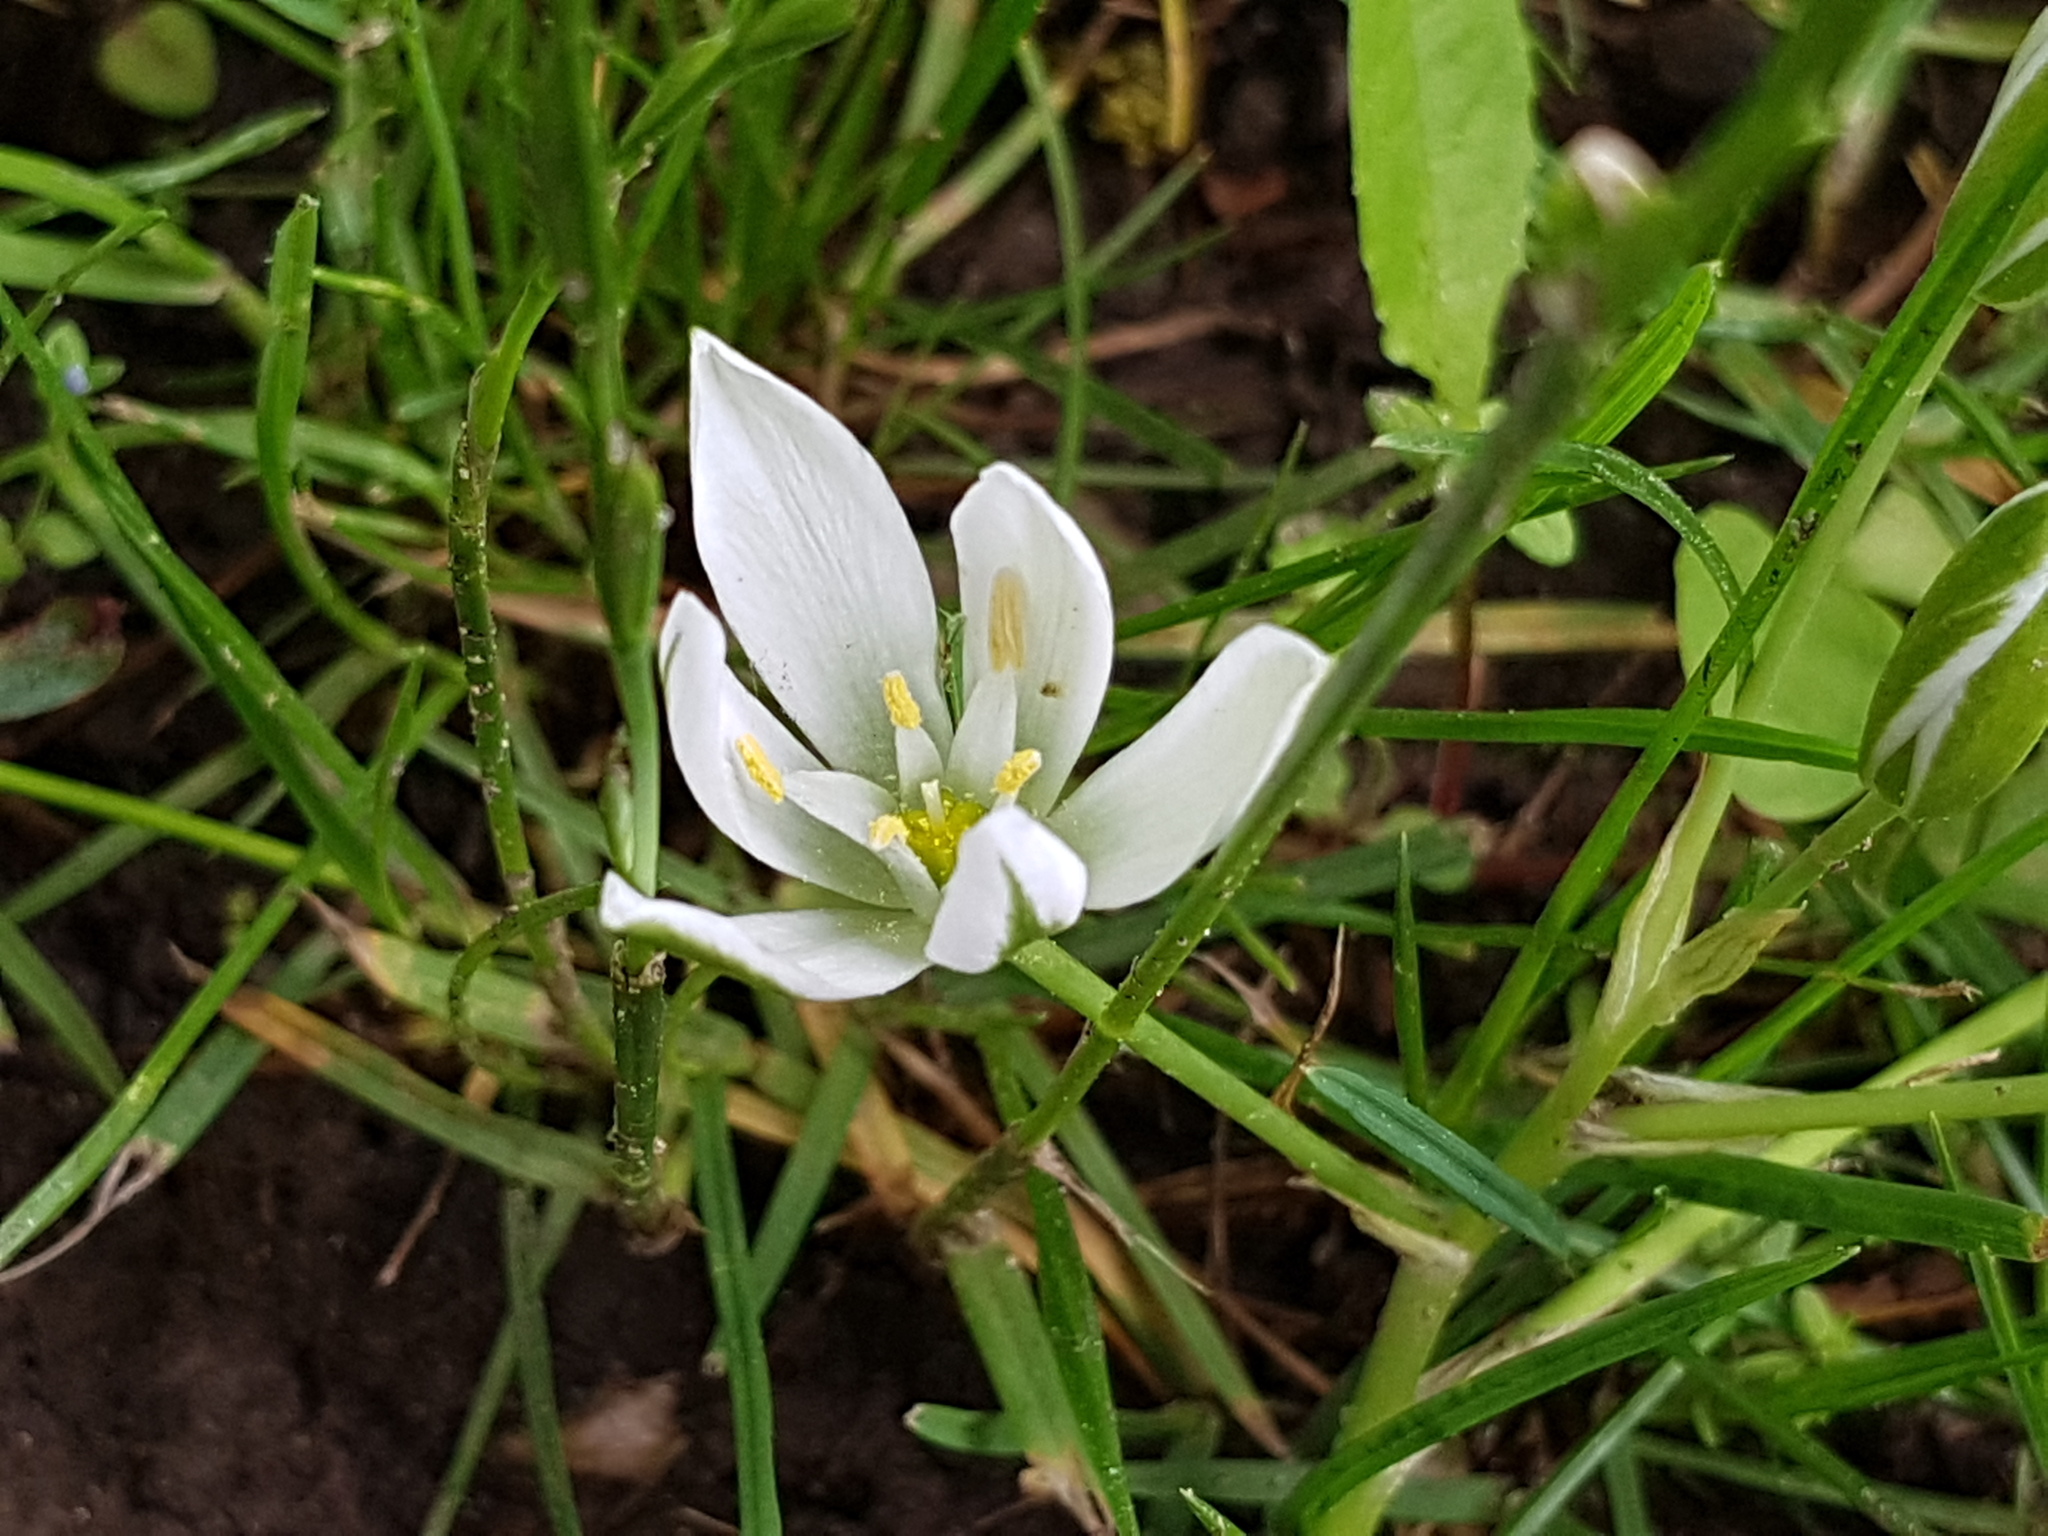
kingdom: Plantae
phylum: Tracheophyta
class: Liliopsida
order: Asparagales
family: Asparagaceae
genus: Ornithogalum
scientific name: Ornithogalum umbellatum
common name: Garden star-of-bethlehem
